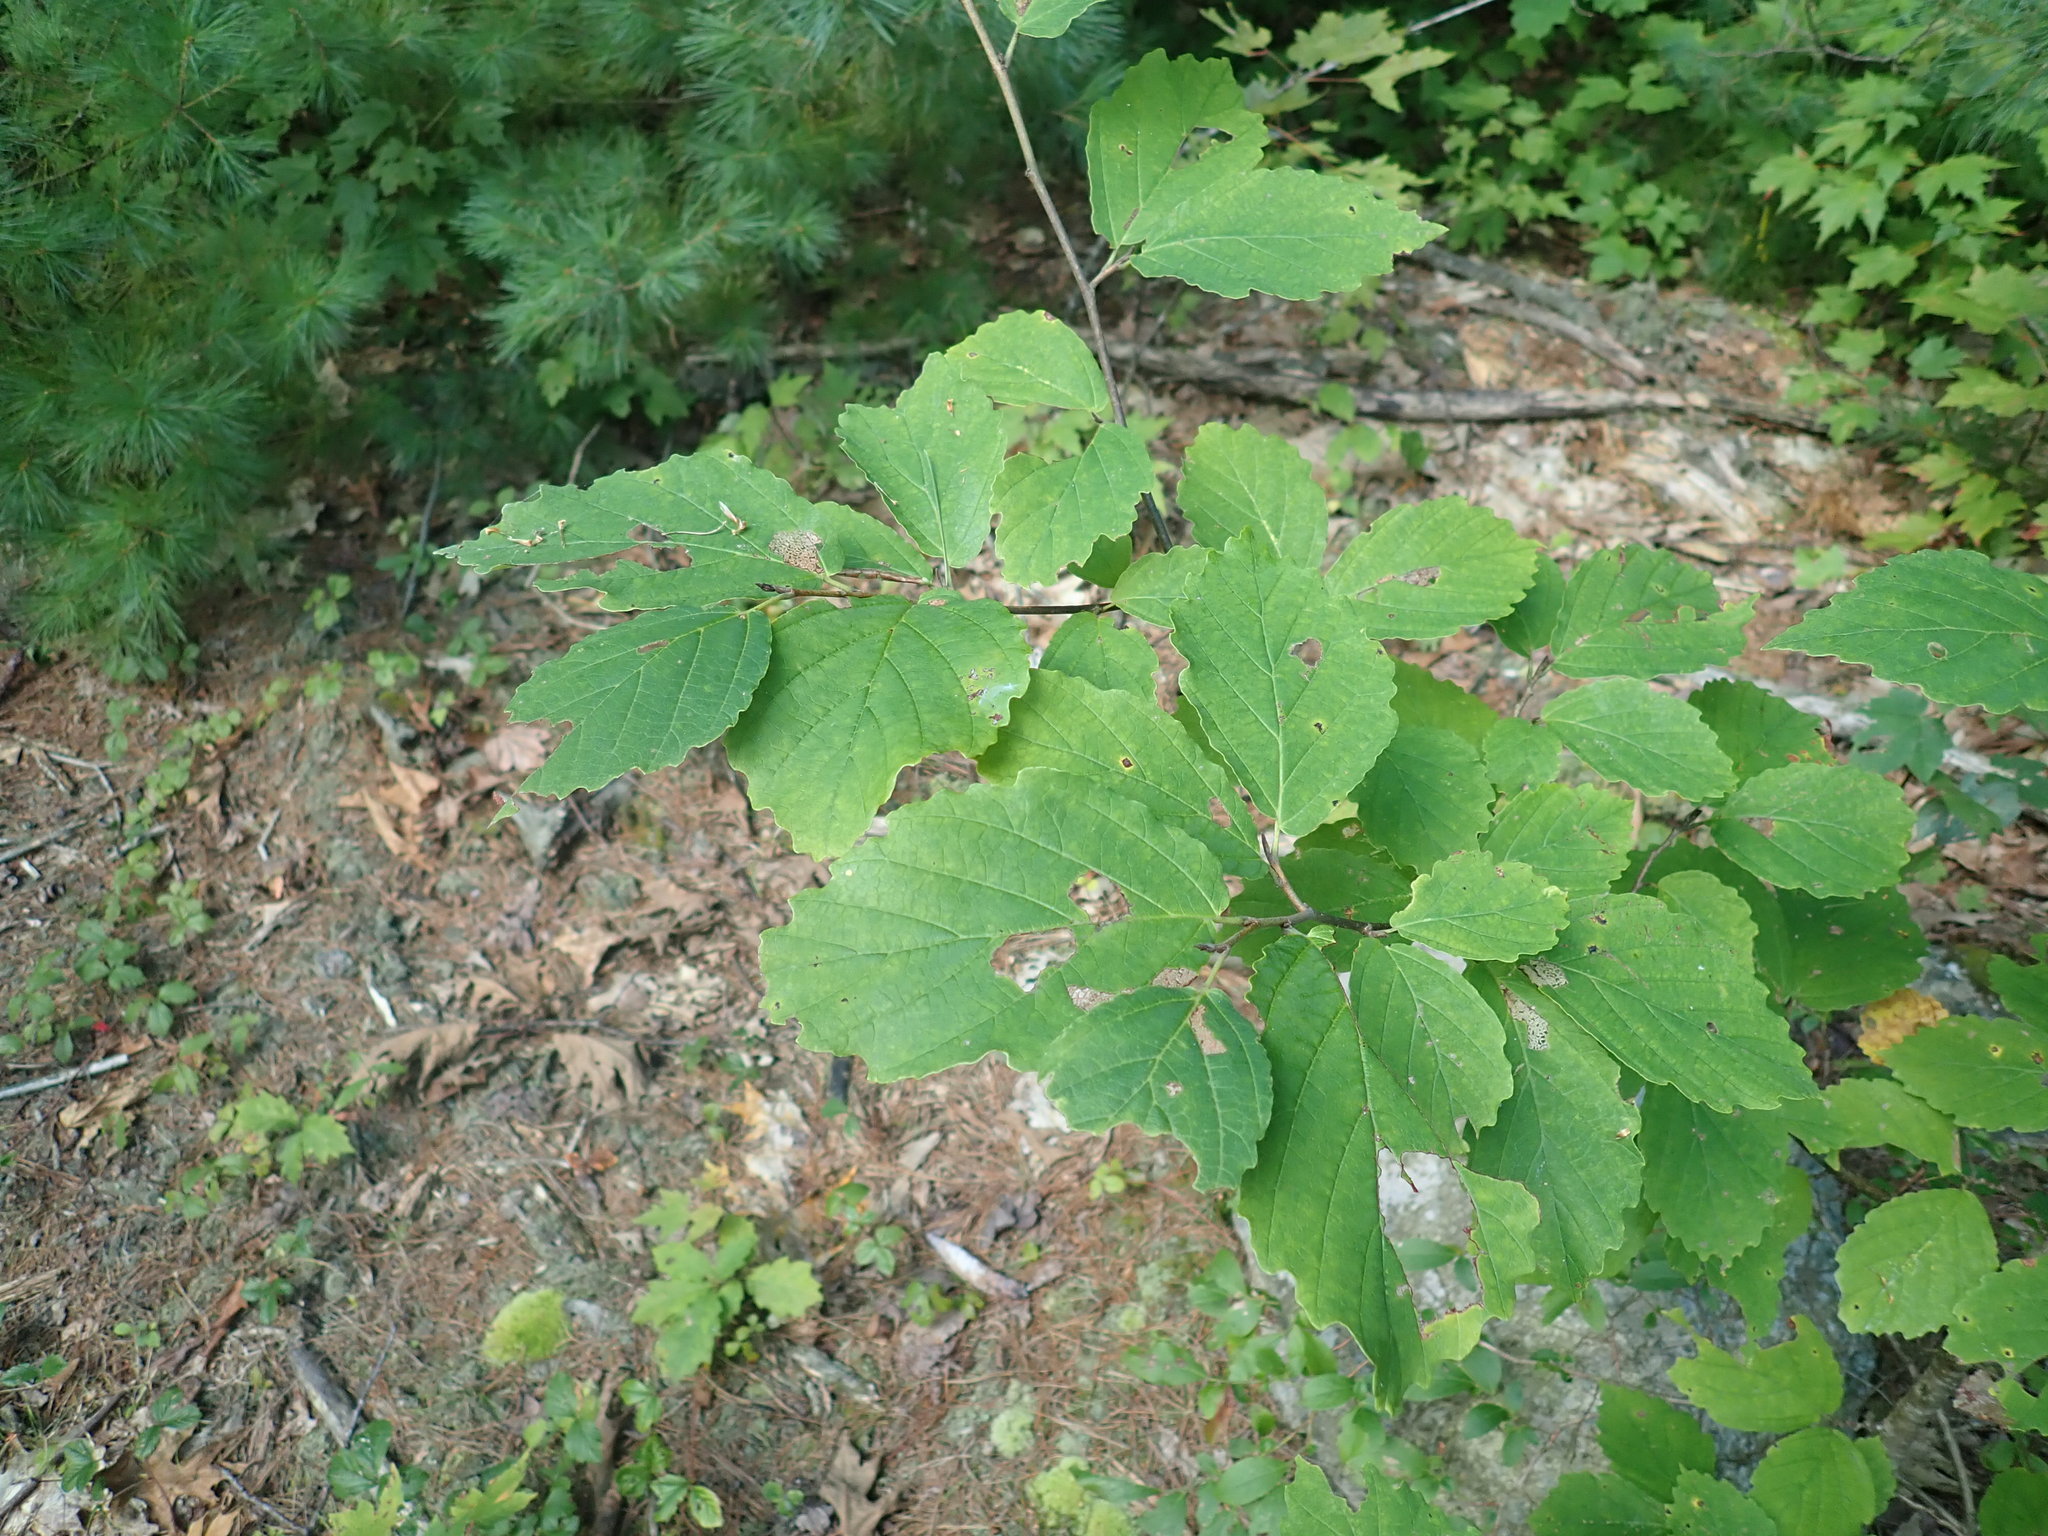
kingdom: Plantae
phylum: Tracheophyta
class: Magnoliopsida
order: Saxifragales
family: Hamamelidaceae
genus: Hamamelis
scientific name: Hamamelis virginiana
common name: Witch-hazel
